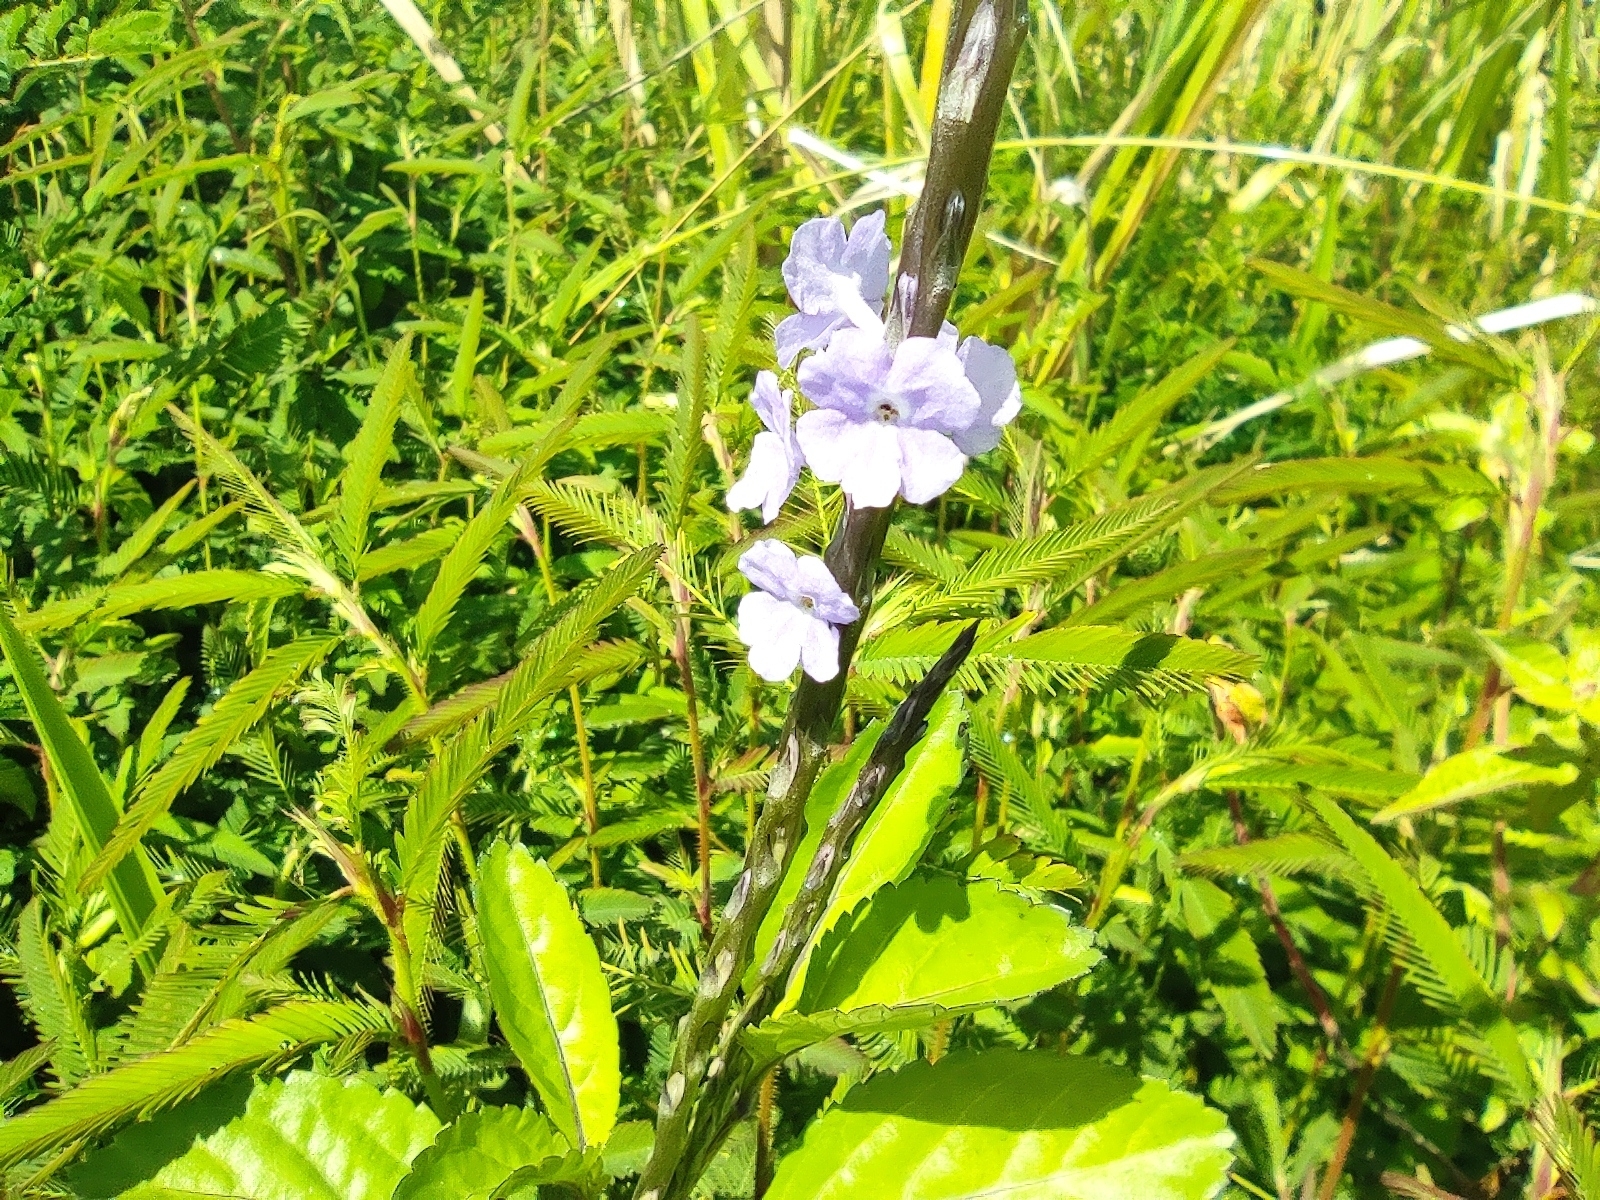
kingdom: Plantae
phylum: Tracheophyta
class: Magnoliopsida
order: Lamiales
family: Verbenaceae
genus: Stachytarpheta
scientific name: Stachytarpheta jamaicensis
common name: Light-blue snakeweed
